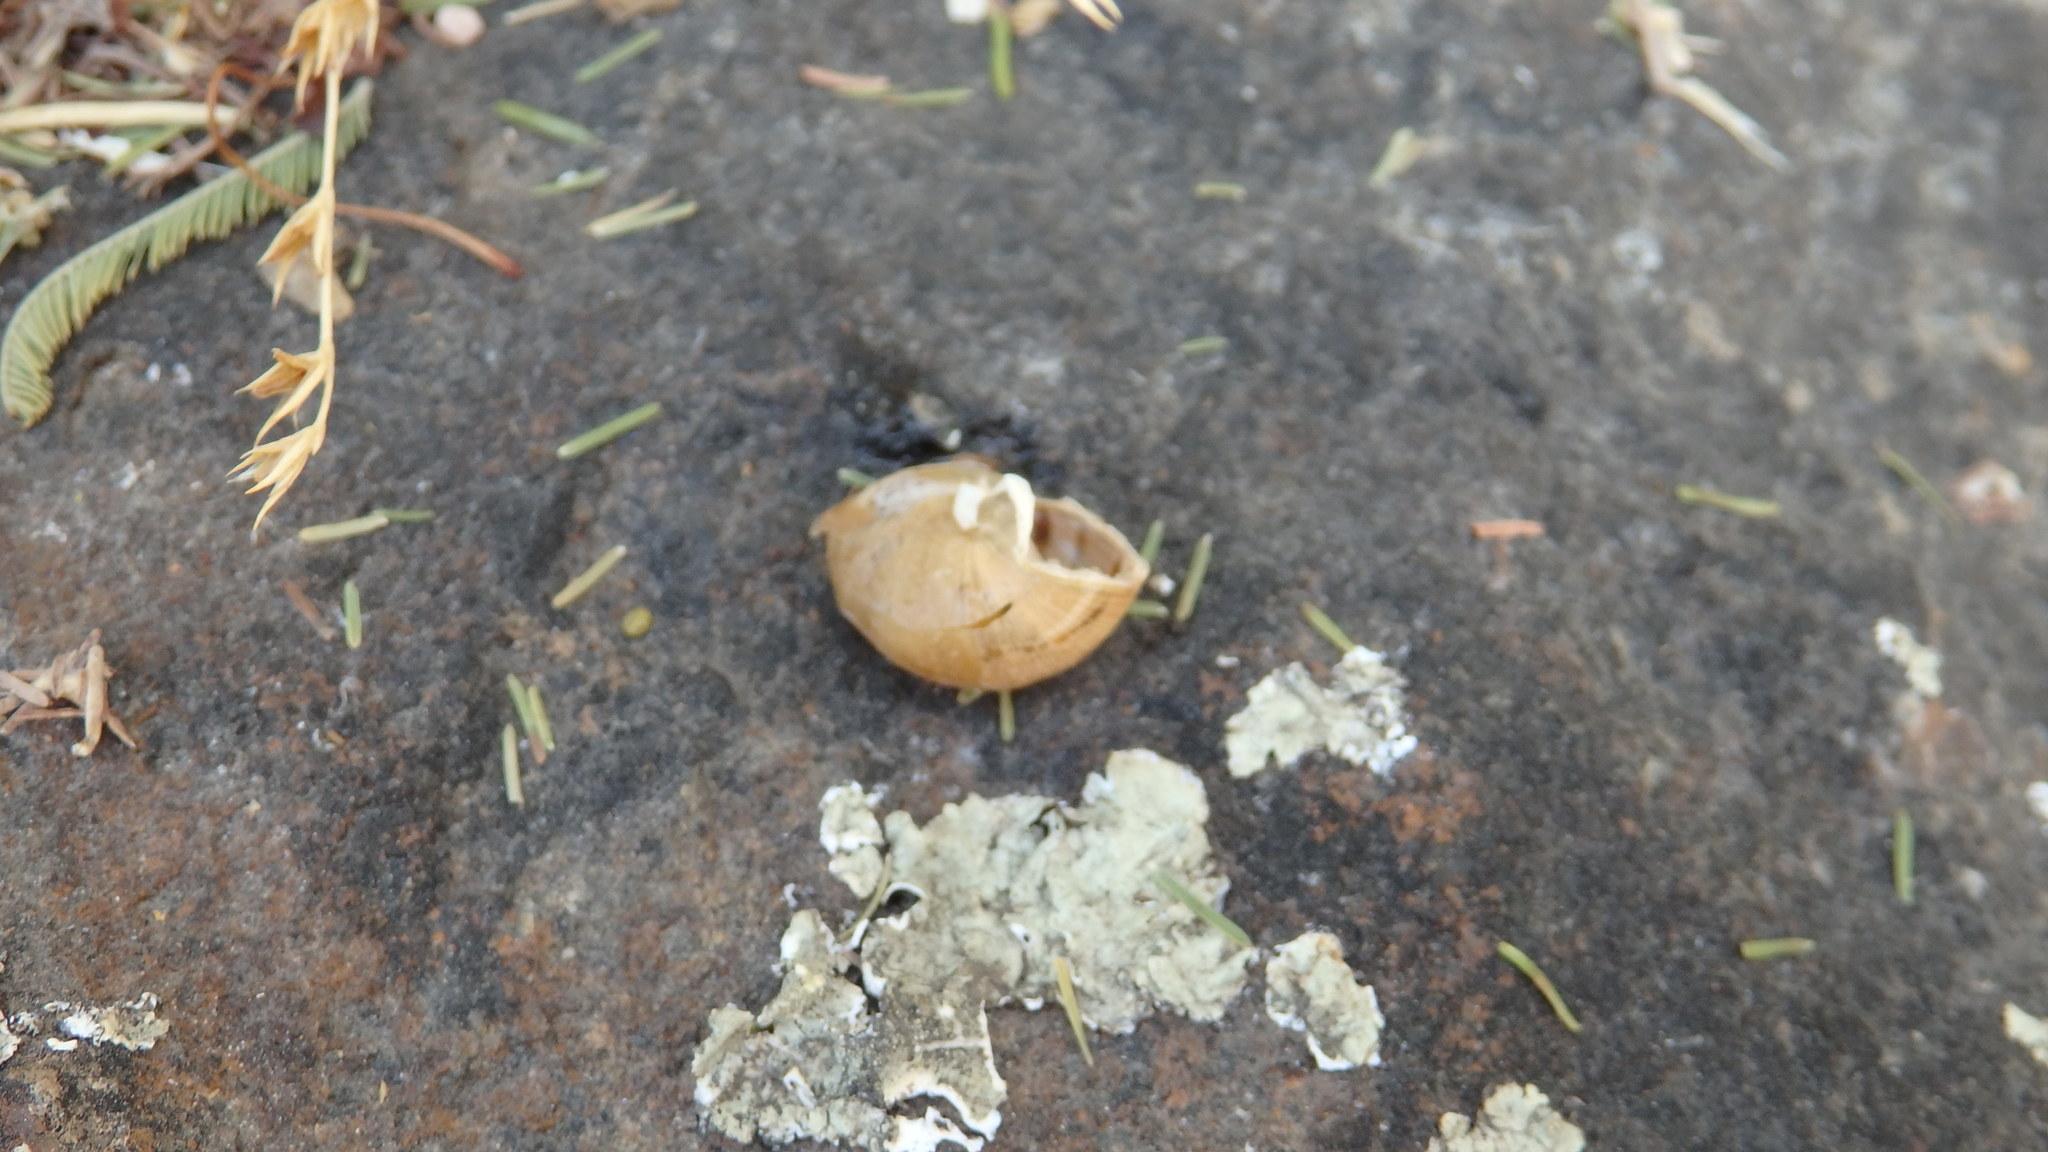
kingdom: Animalia
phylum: Mollusca
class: Gastropoda
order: Stylommatophora
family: Helicidae
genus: Cornu
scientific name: Cornu aspersum
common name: Brown garden snail
